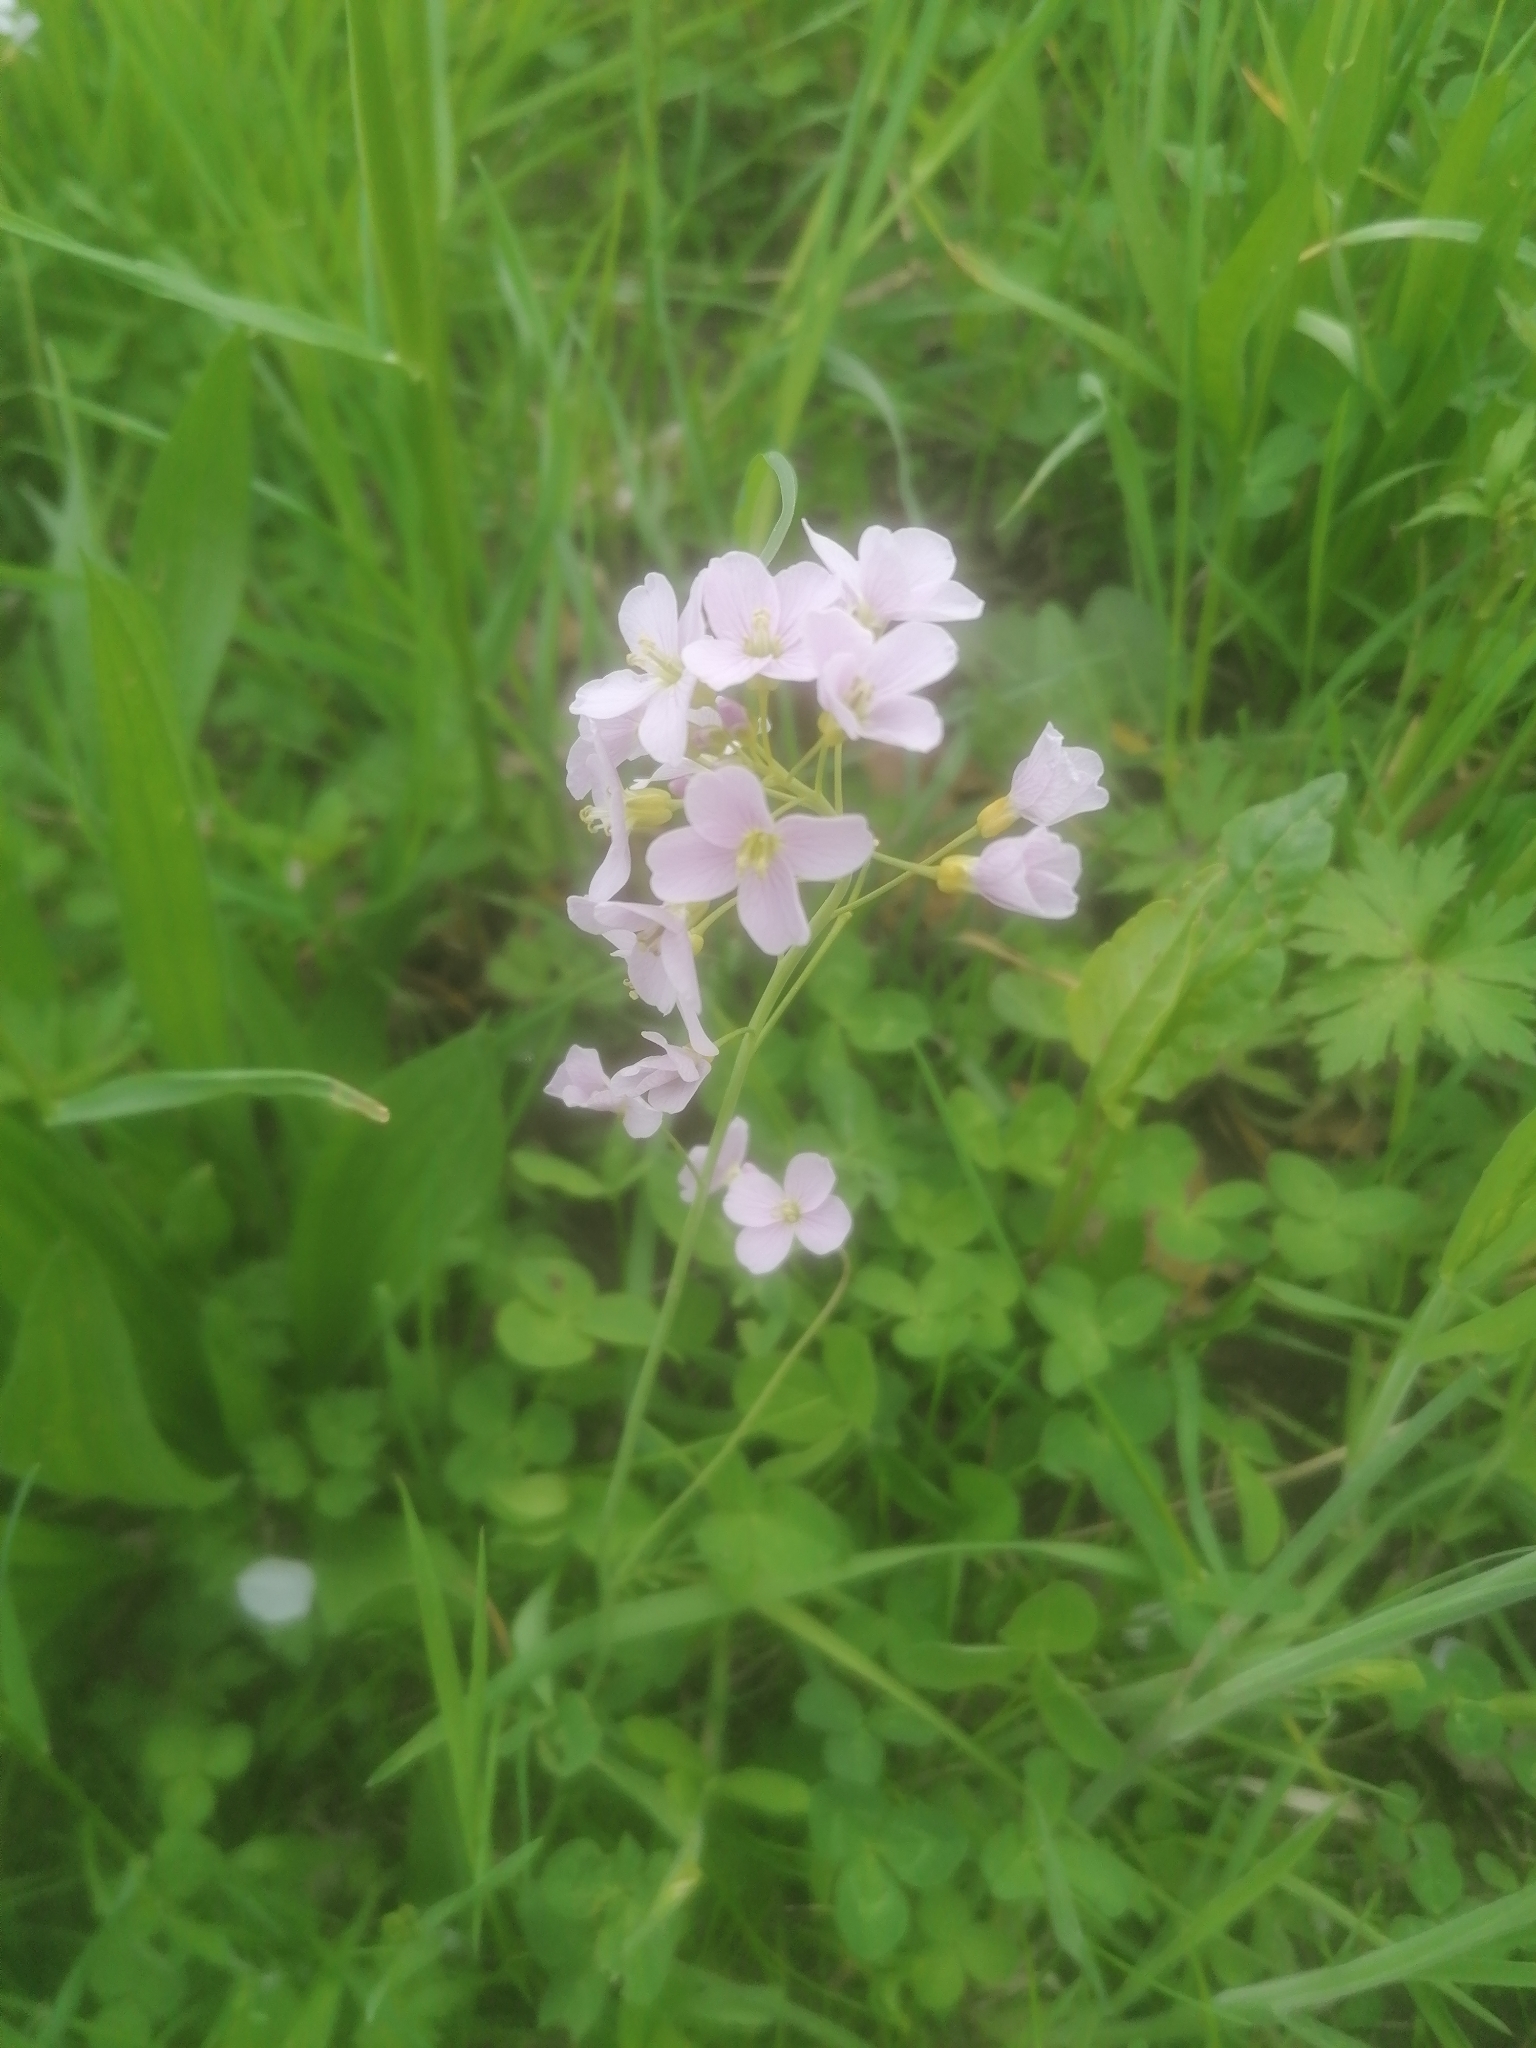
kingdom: Plantae
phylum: Tracheophyta
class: Magnoliopsida
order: Brassicales
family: Brassicaceae
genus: Cardamine
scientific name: Cardamine pratensis
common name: Cuckoo flower
